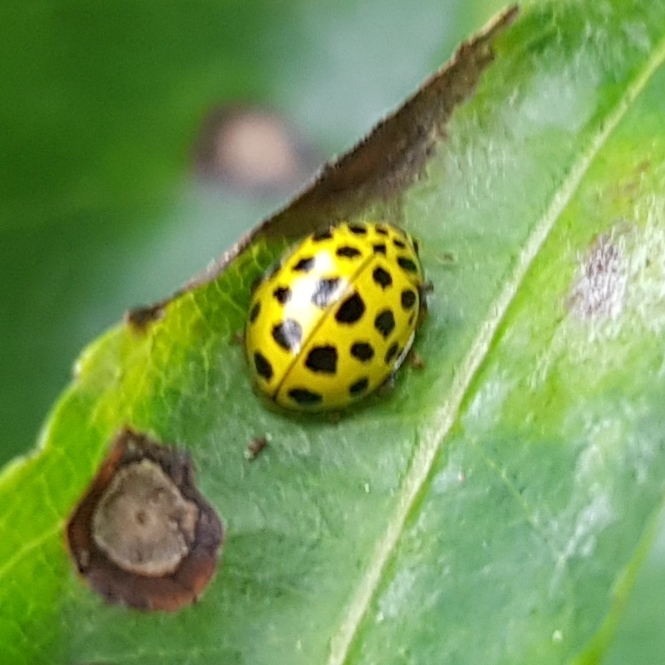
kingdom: Animalia
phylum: Arthropoda
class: Insecta
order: Coleoptera
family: Coccinellidae
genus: Psyllobora
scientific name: Psyllobora vigintiduopunctata
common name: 22-spot ladybird
